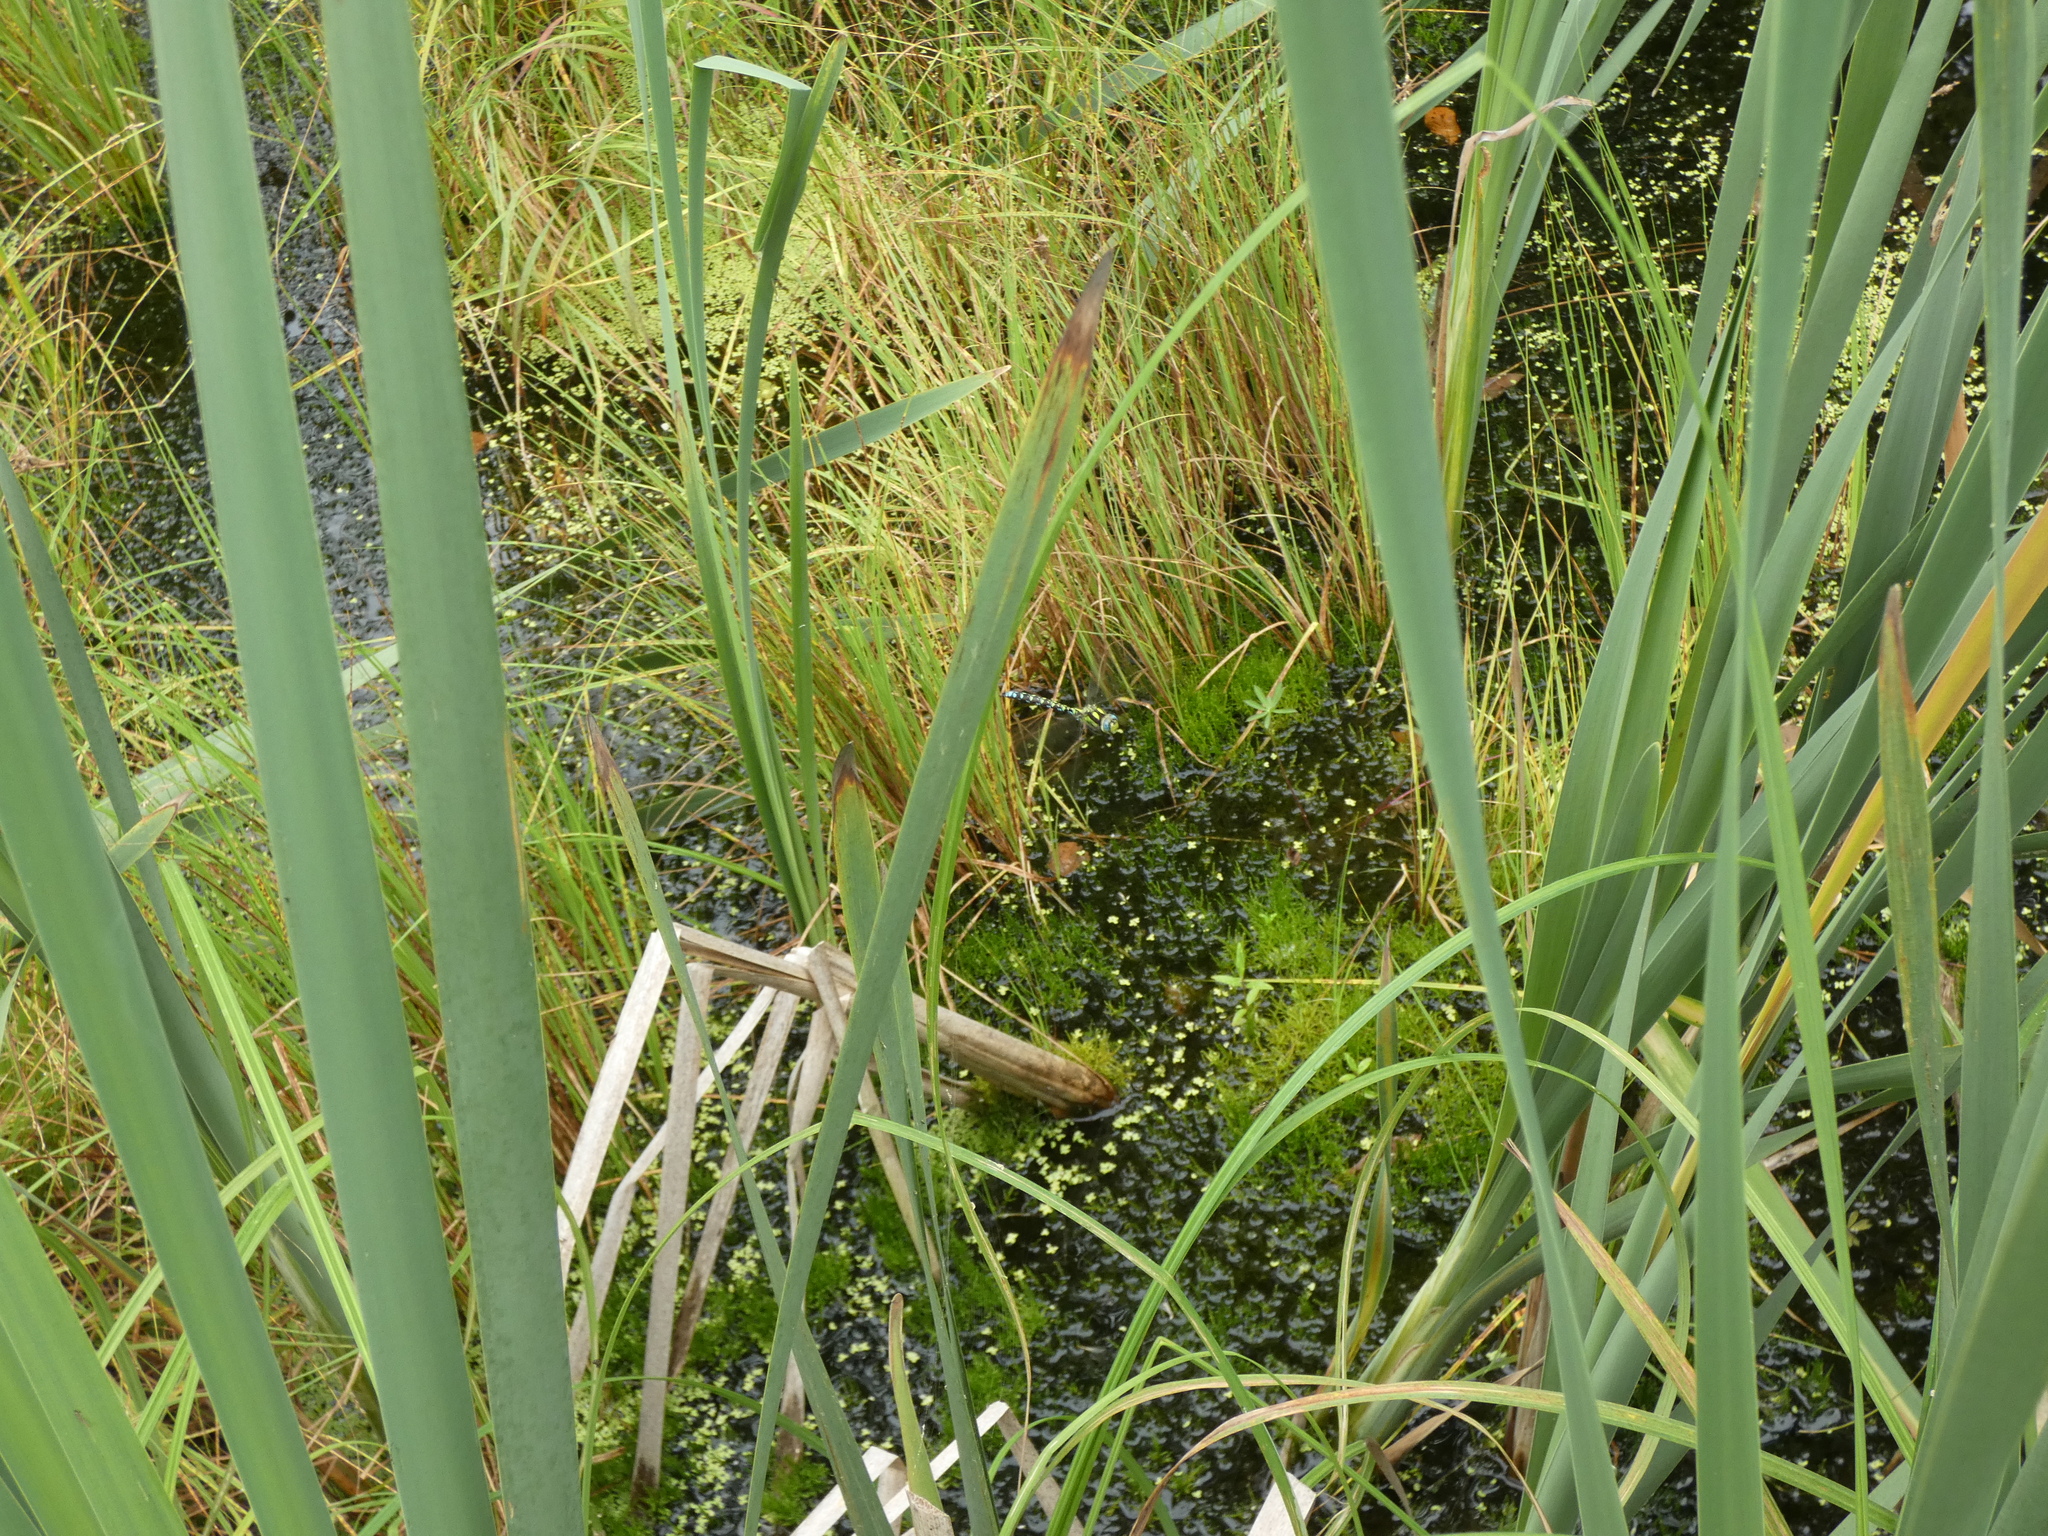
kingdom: Animalia
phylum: Arthropoda
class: Insecta
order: Odonata
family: Aeshnidae
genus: Aeshna
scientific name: Aeshna cyanea
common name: Southern hawker
